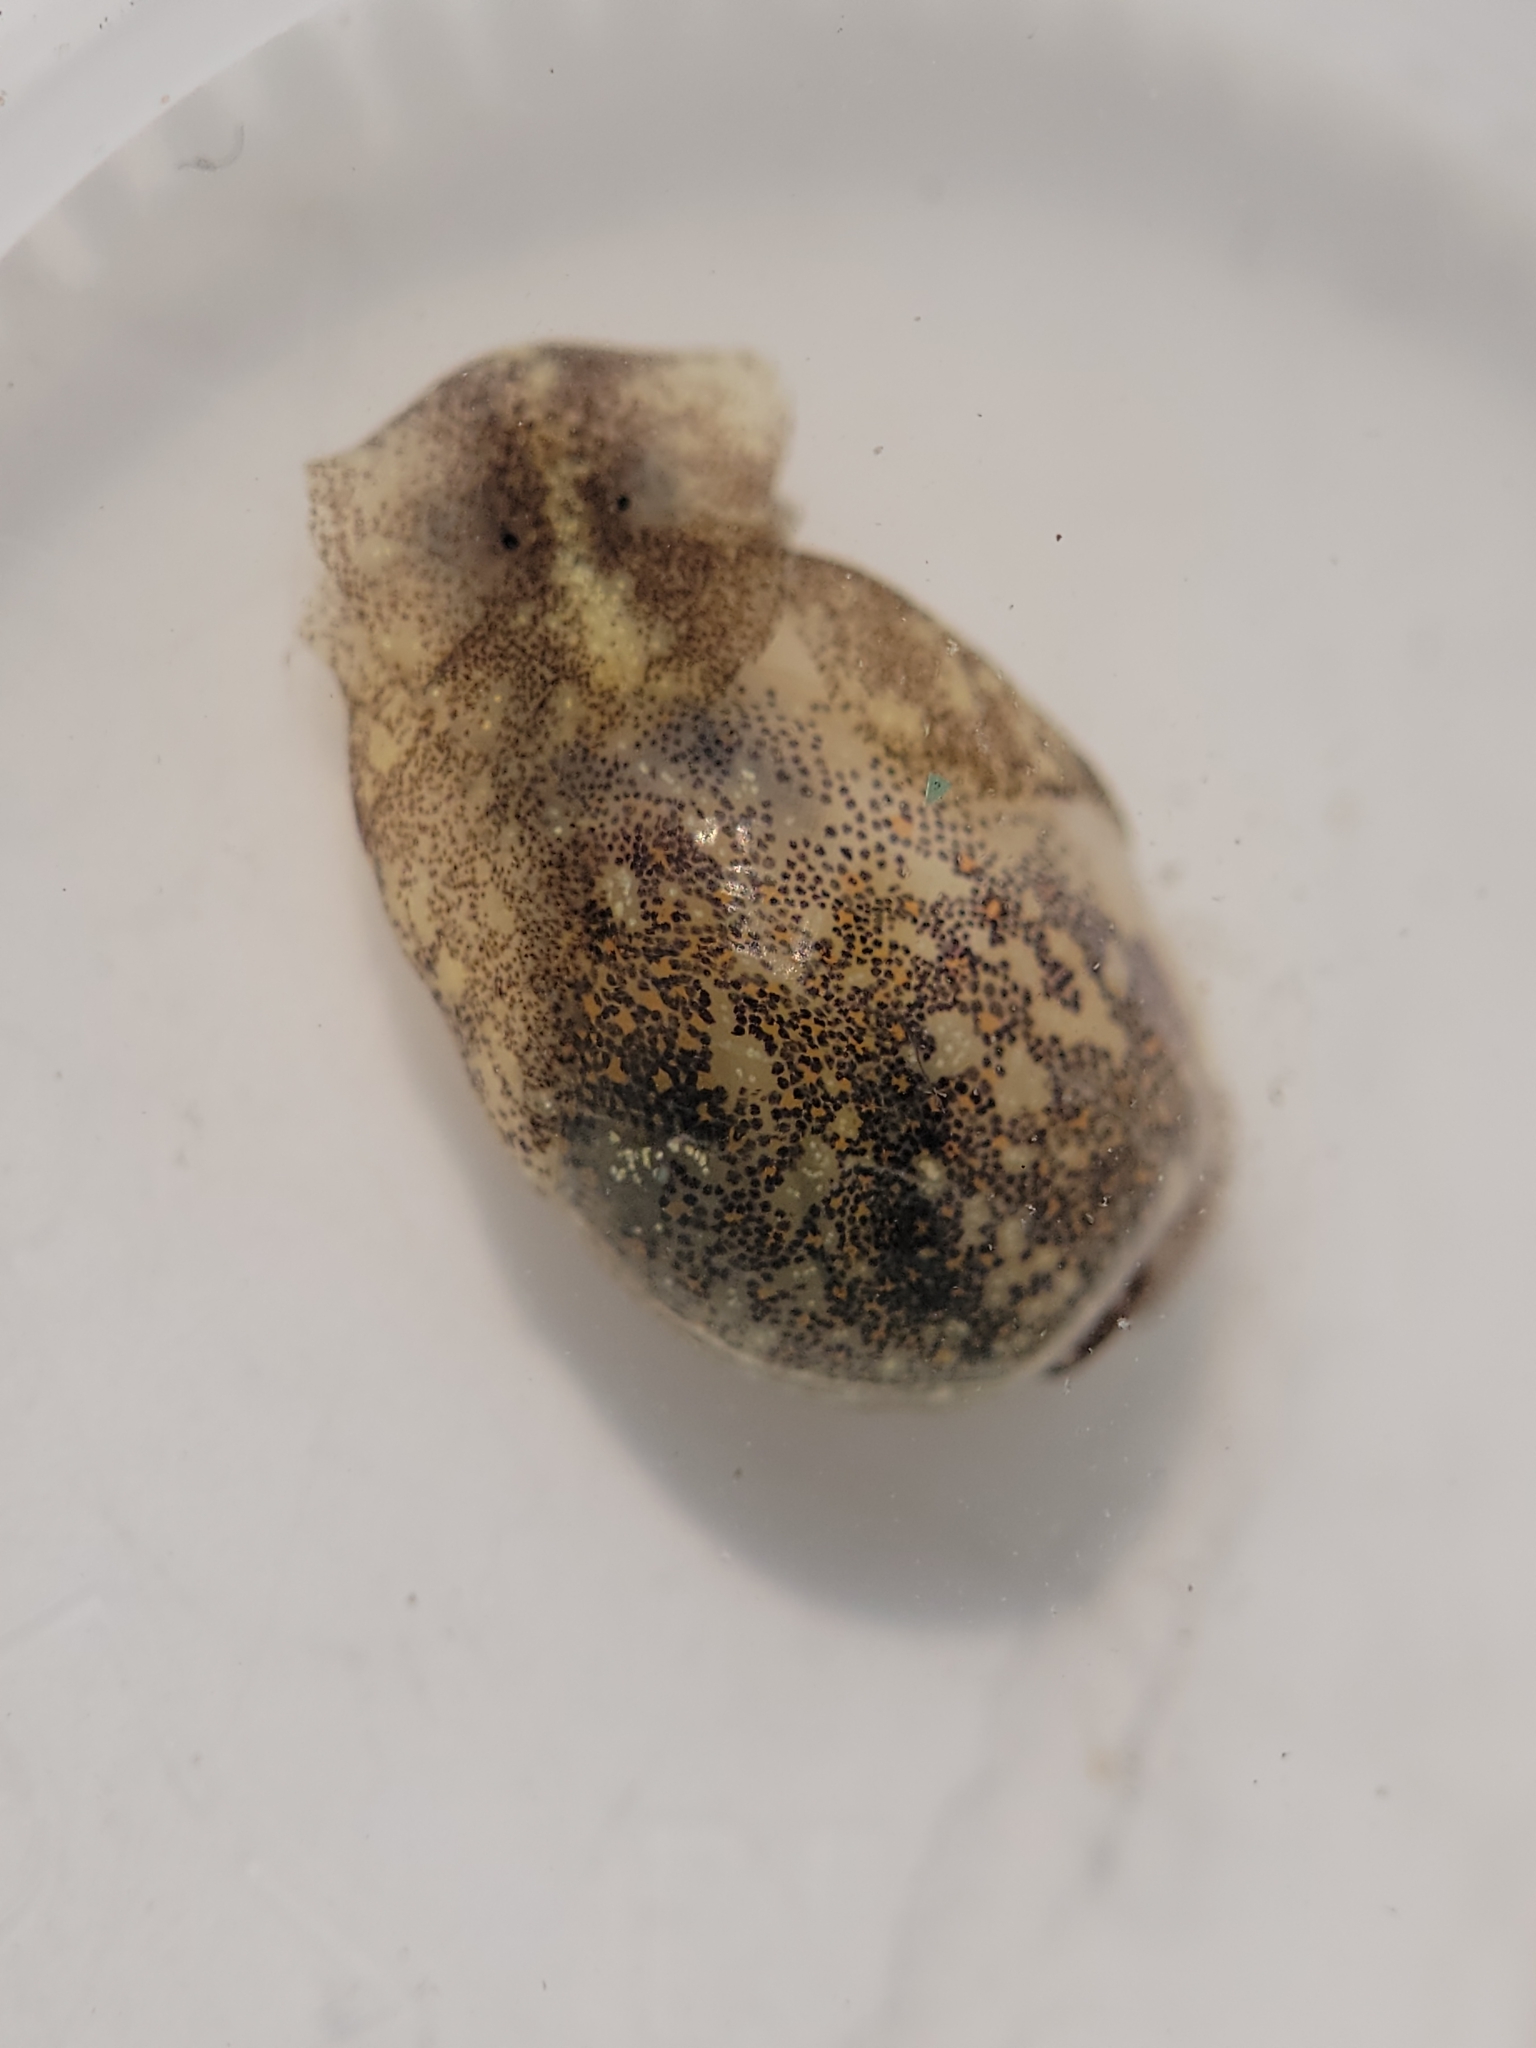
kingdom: Animalia
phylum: Mollusca
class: Gastropoda
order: Cephalaspidea
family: Haminoeidae
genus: Haminoea
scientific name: Haminoea vesicula
